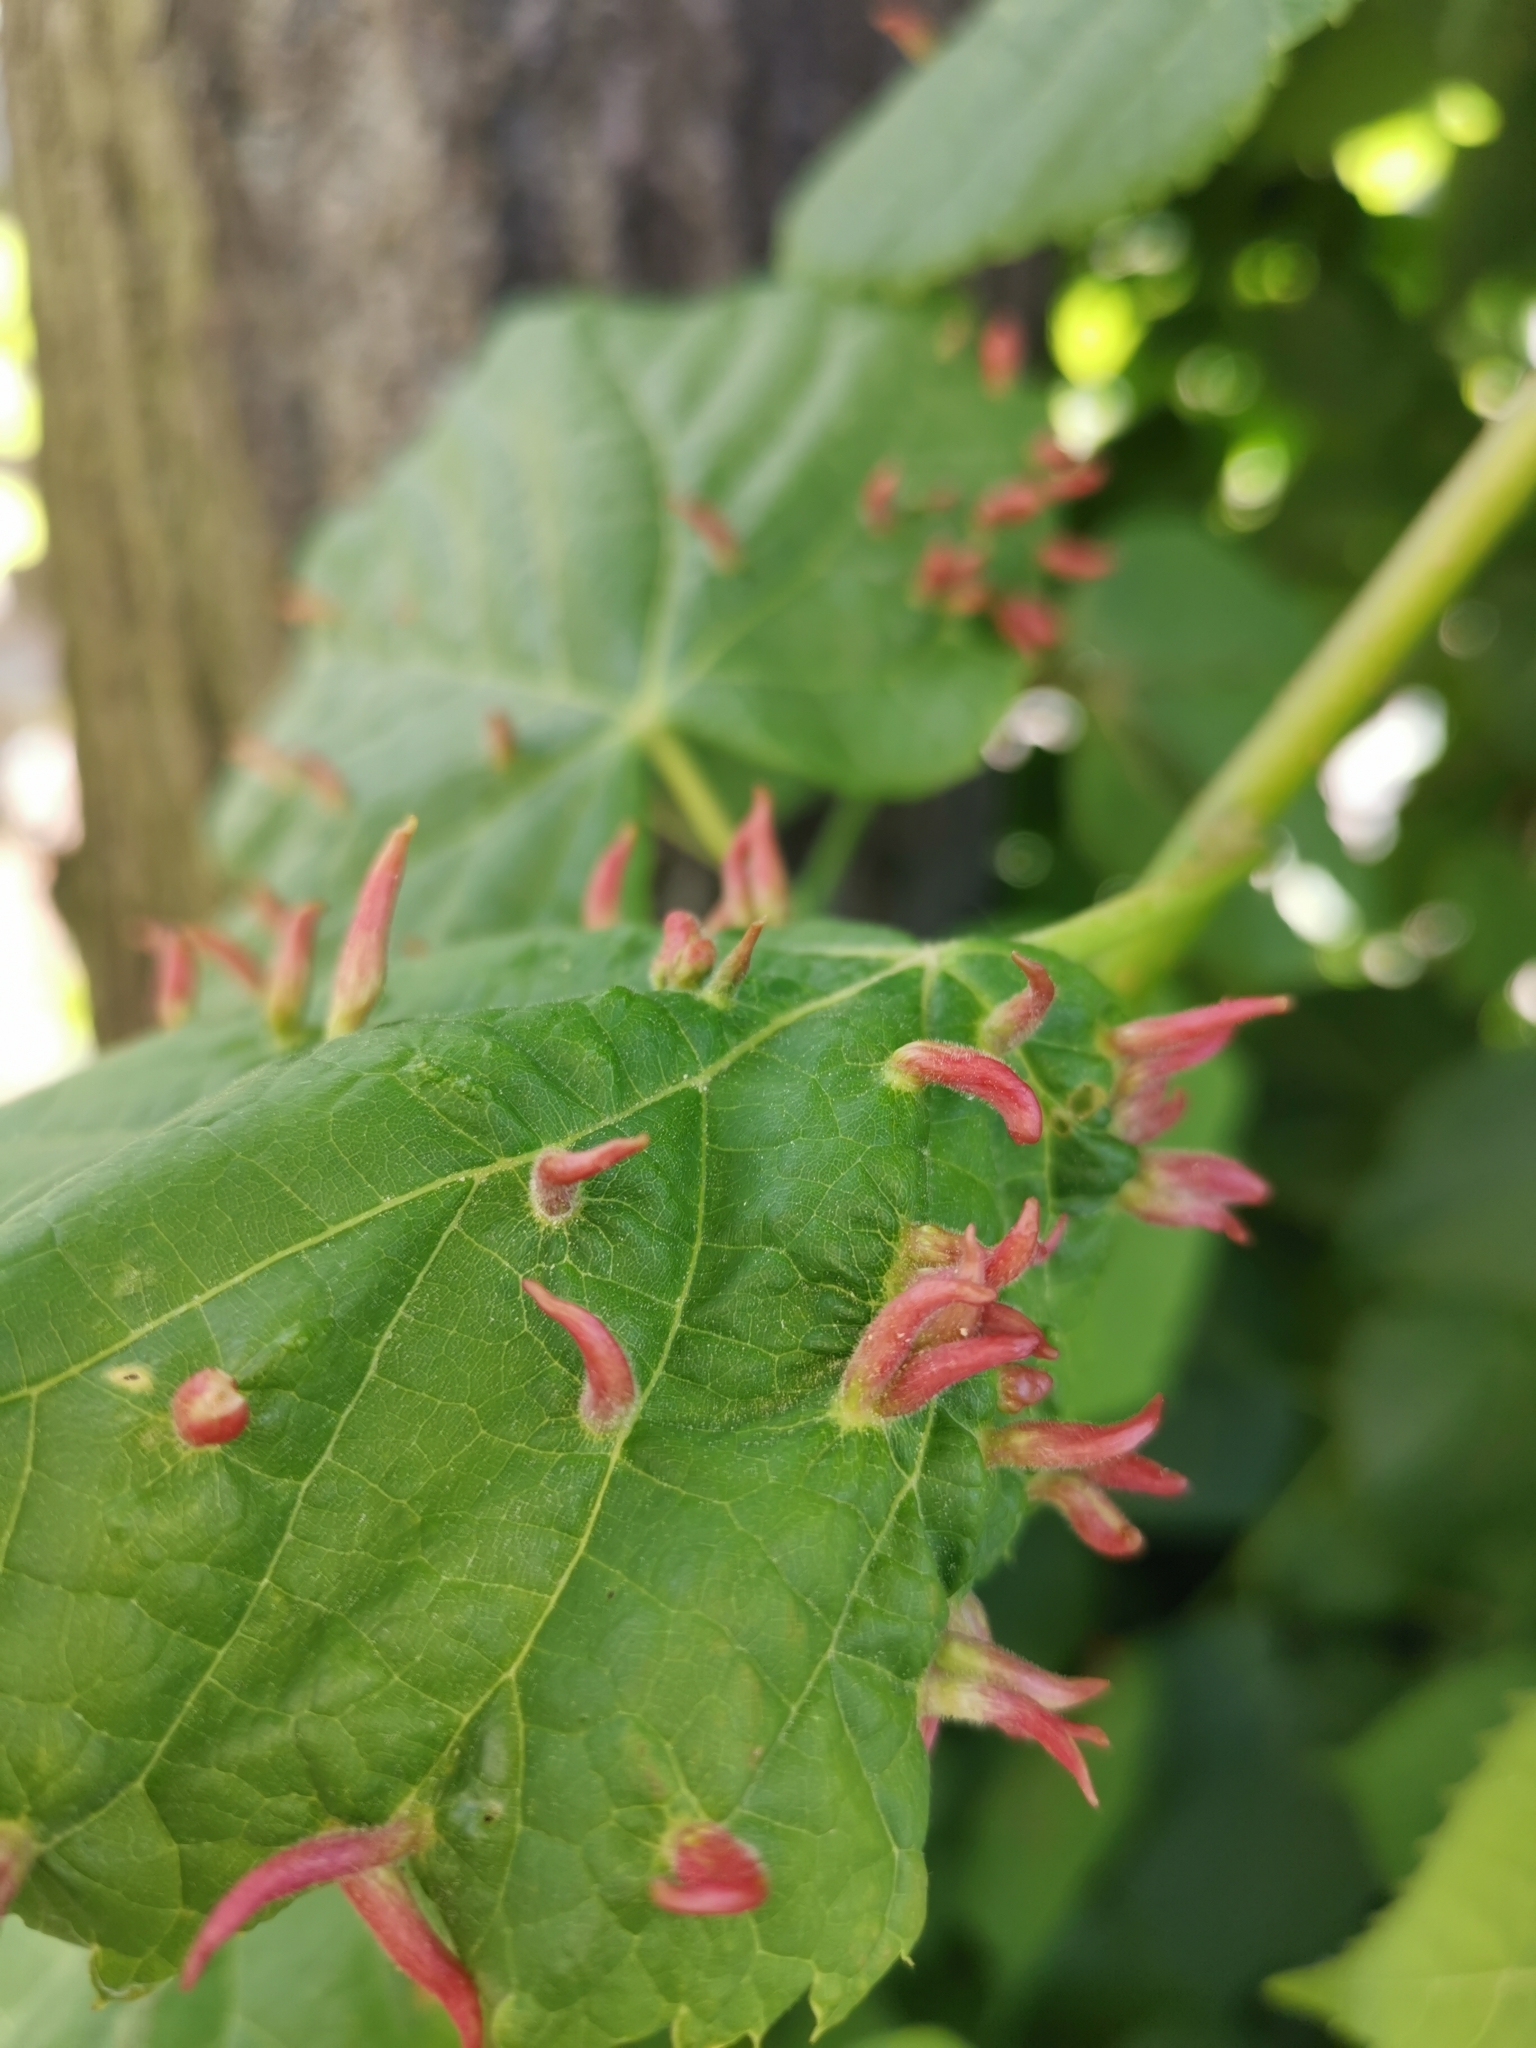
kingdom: Animalia
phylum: Arthropoda
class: Arachnida
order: Trombidiformes
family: Eriophyidae
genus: Eriophyes
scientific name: Eriophyes tiliae
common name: Red nail gall mite
